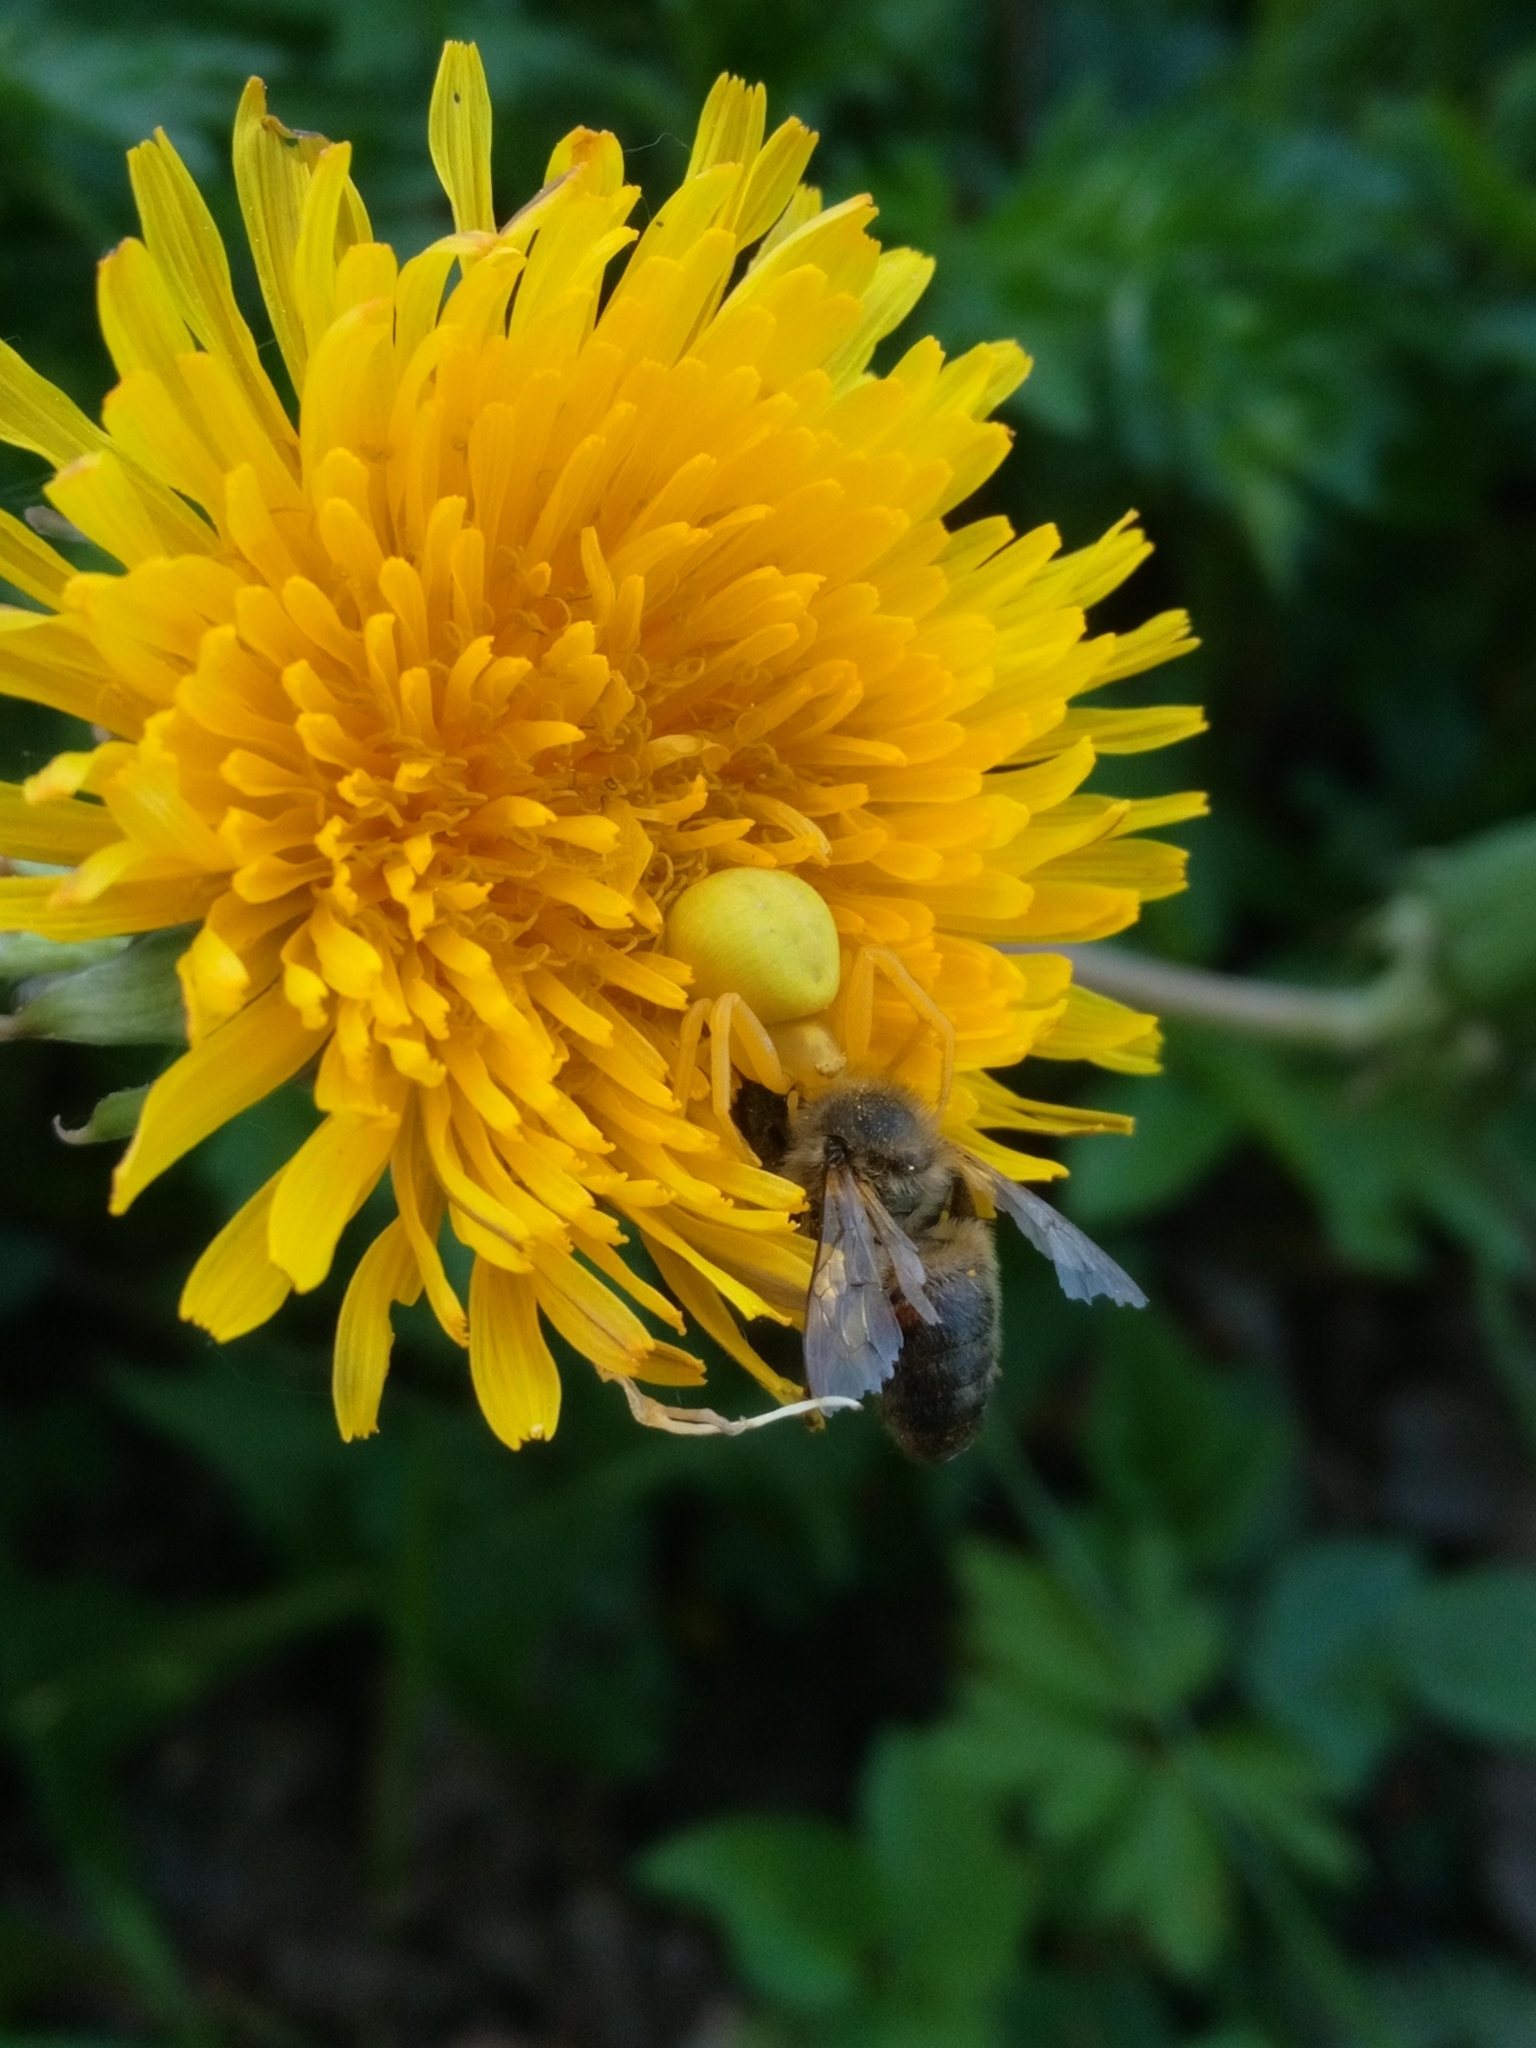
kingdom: Animalia
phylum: Arthropoda
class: Arachnida
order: Araneae
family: Thomisidae
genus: Misumena
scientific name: Misumena vatia
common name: Goldenrod crab spider
